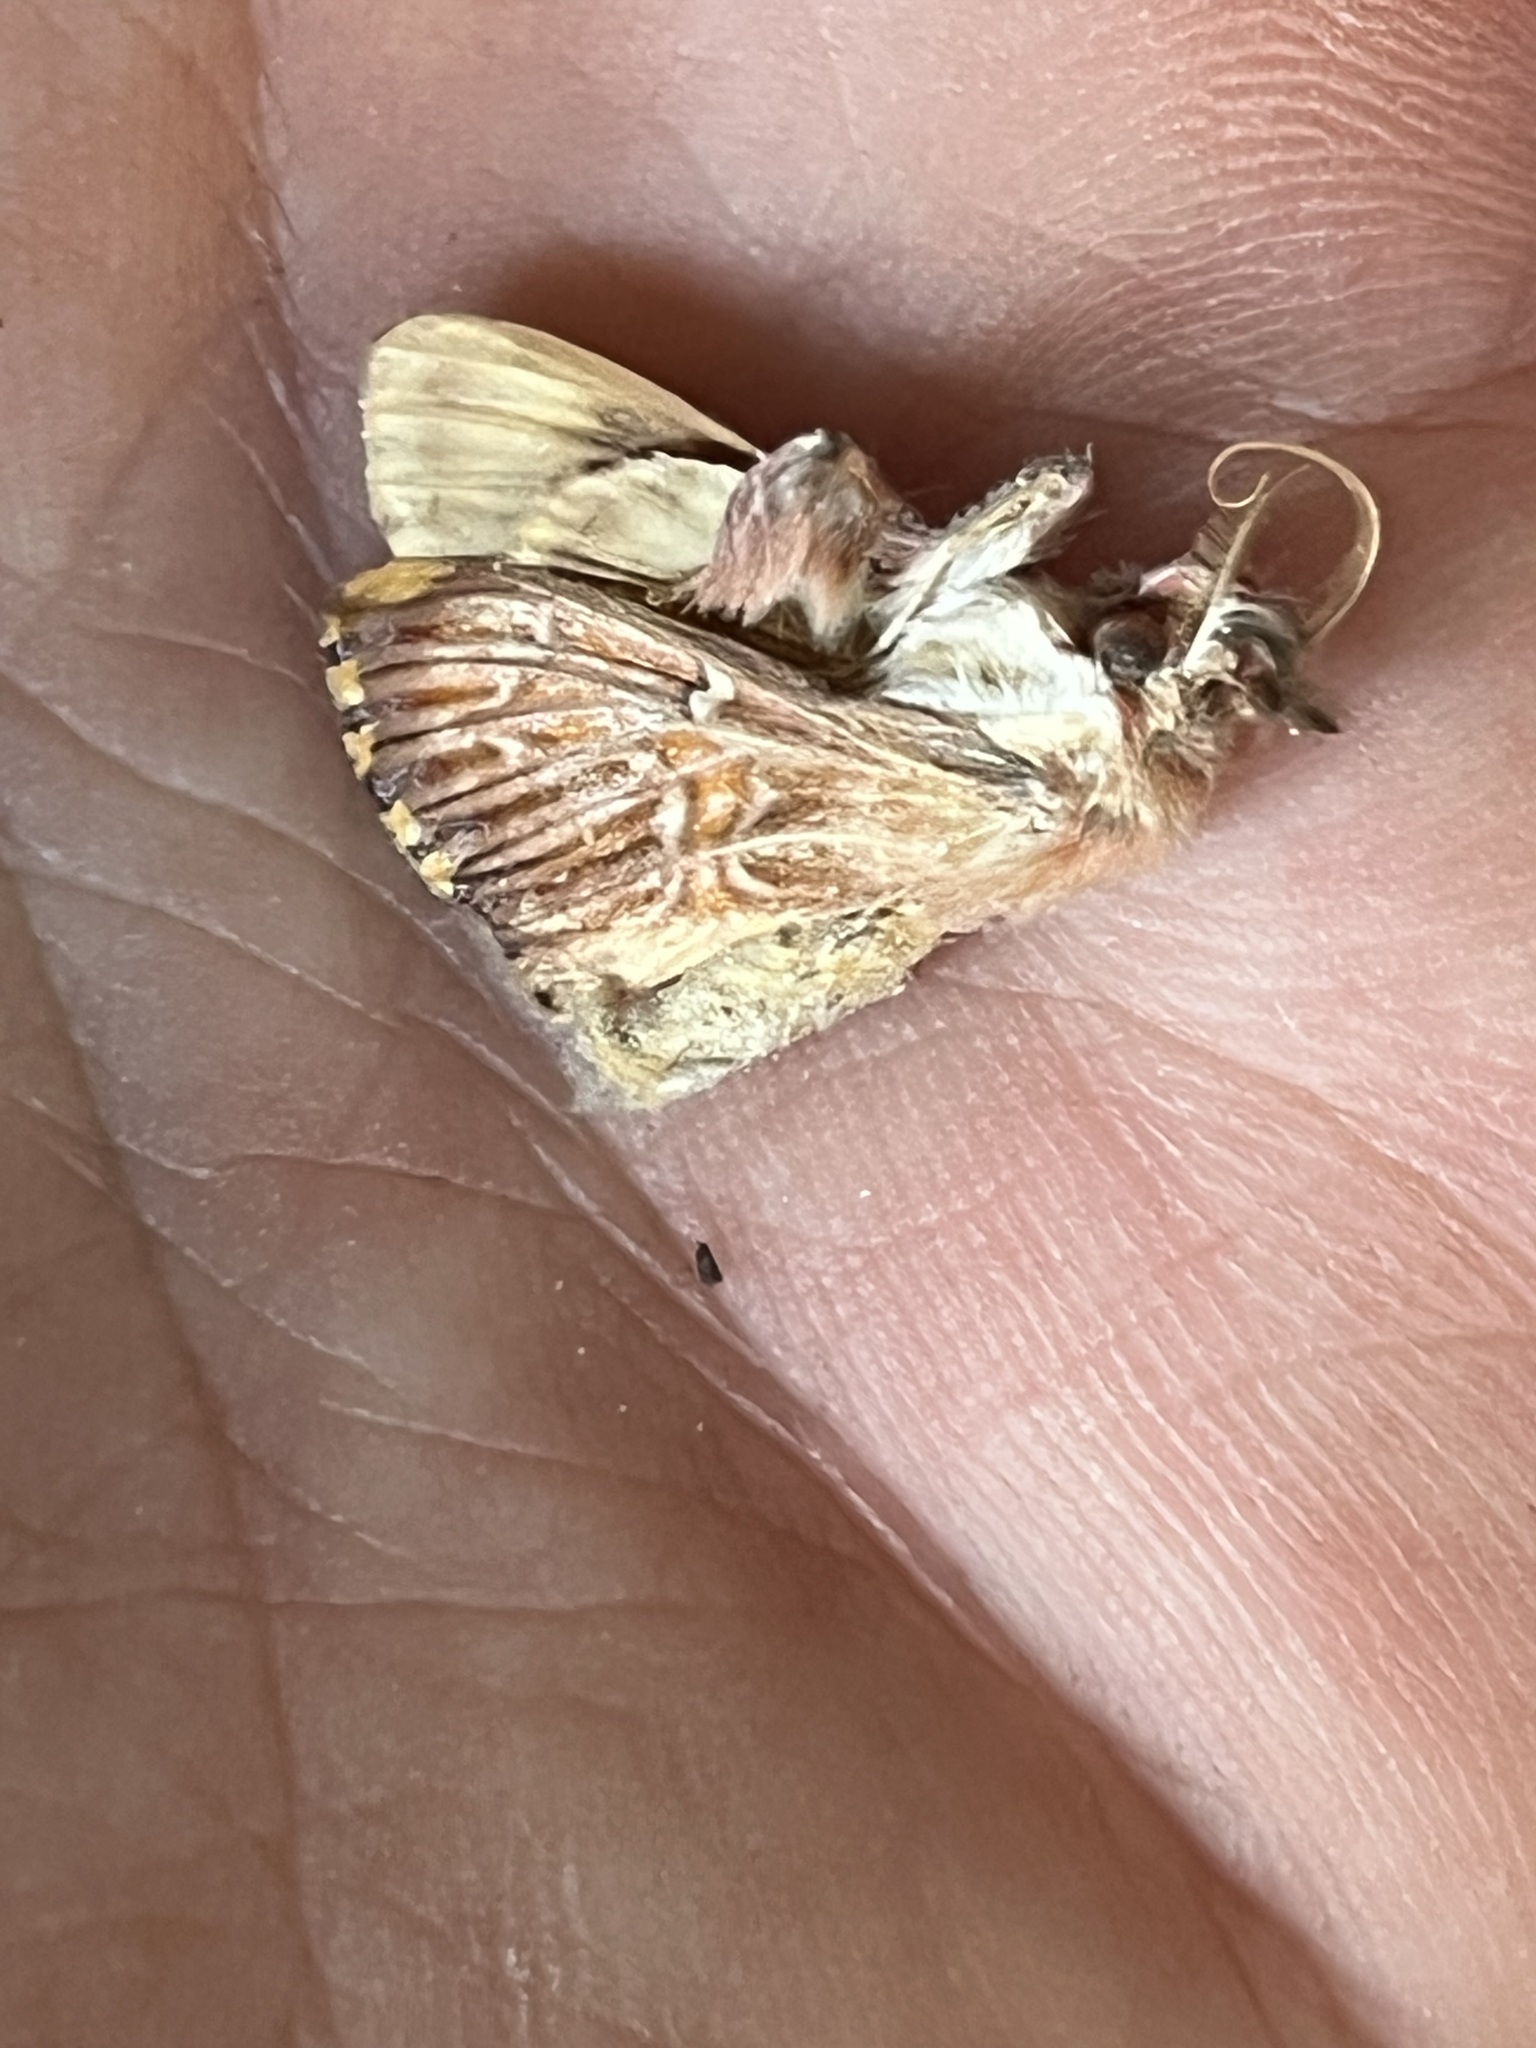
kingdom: Animalia
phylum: Arthropoda
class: Insecta
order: Lepidoptera
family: Erebidae
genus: Sosxetra
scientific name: Sosxetra grata
